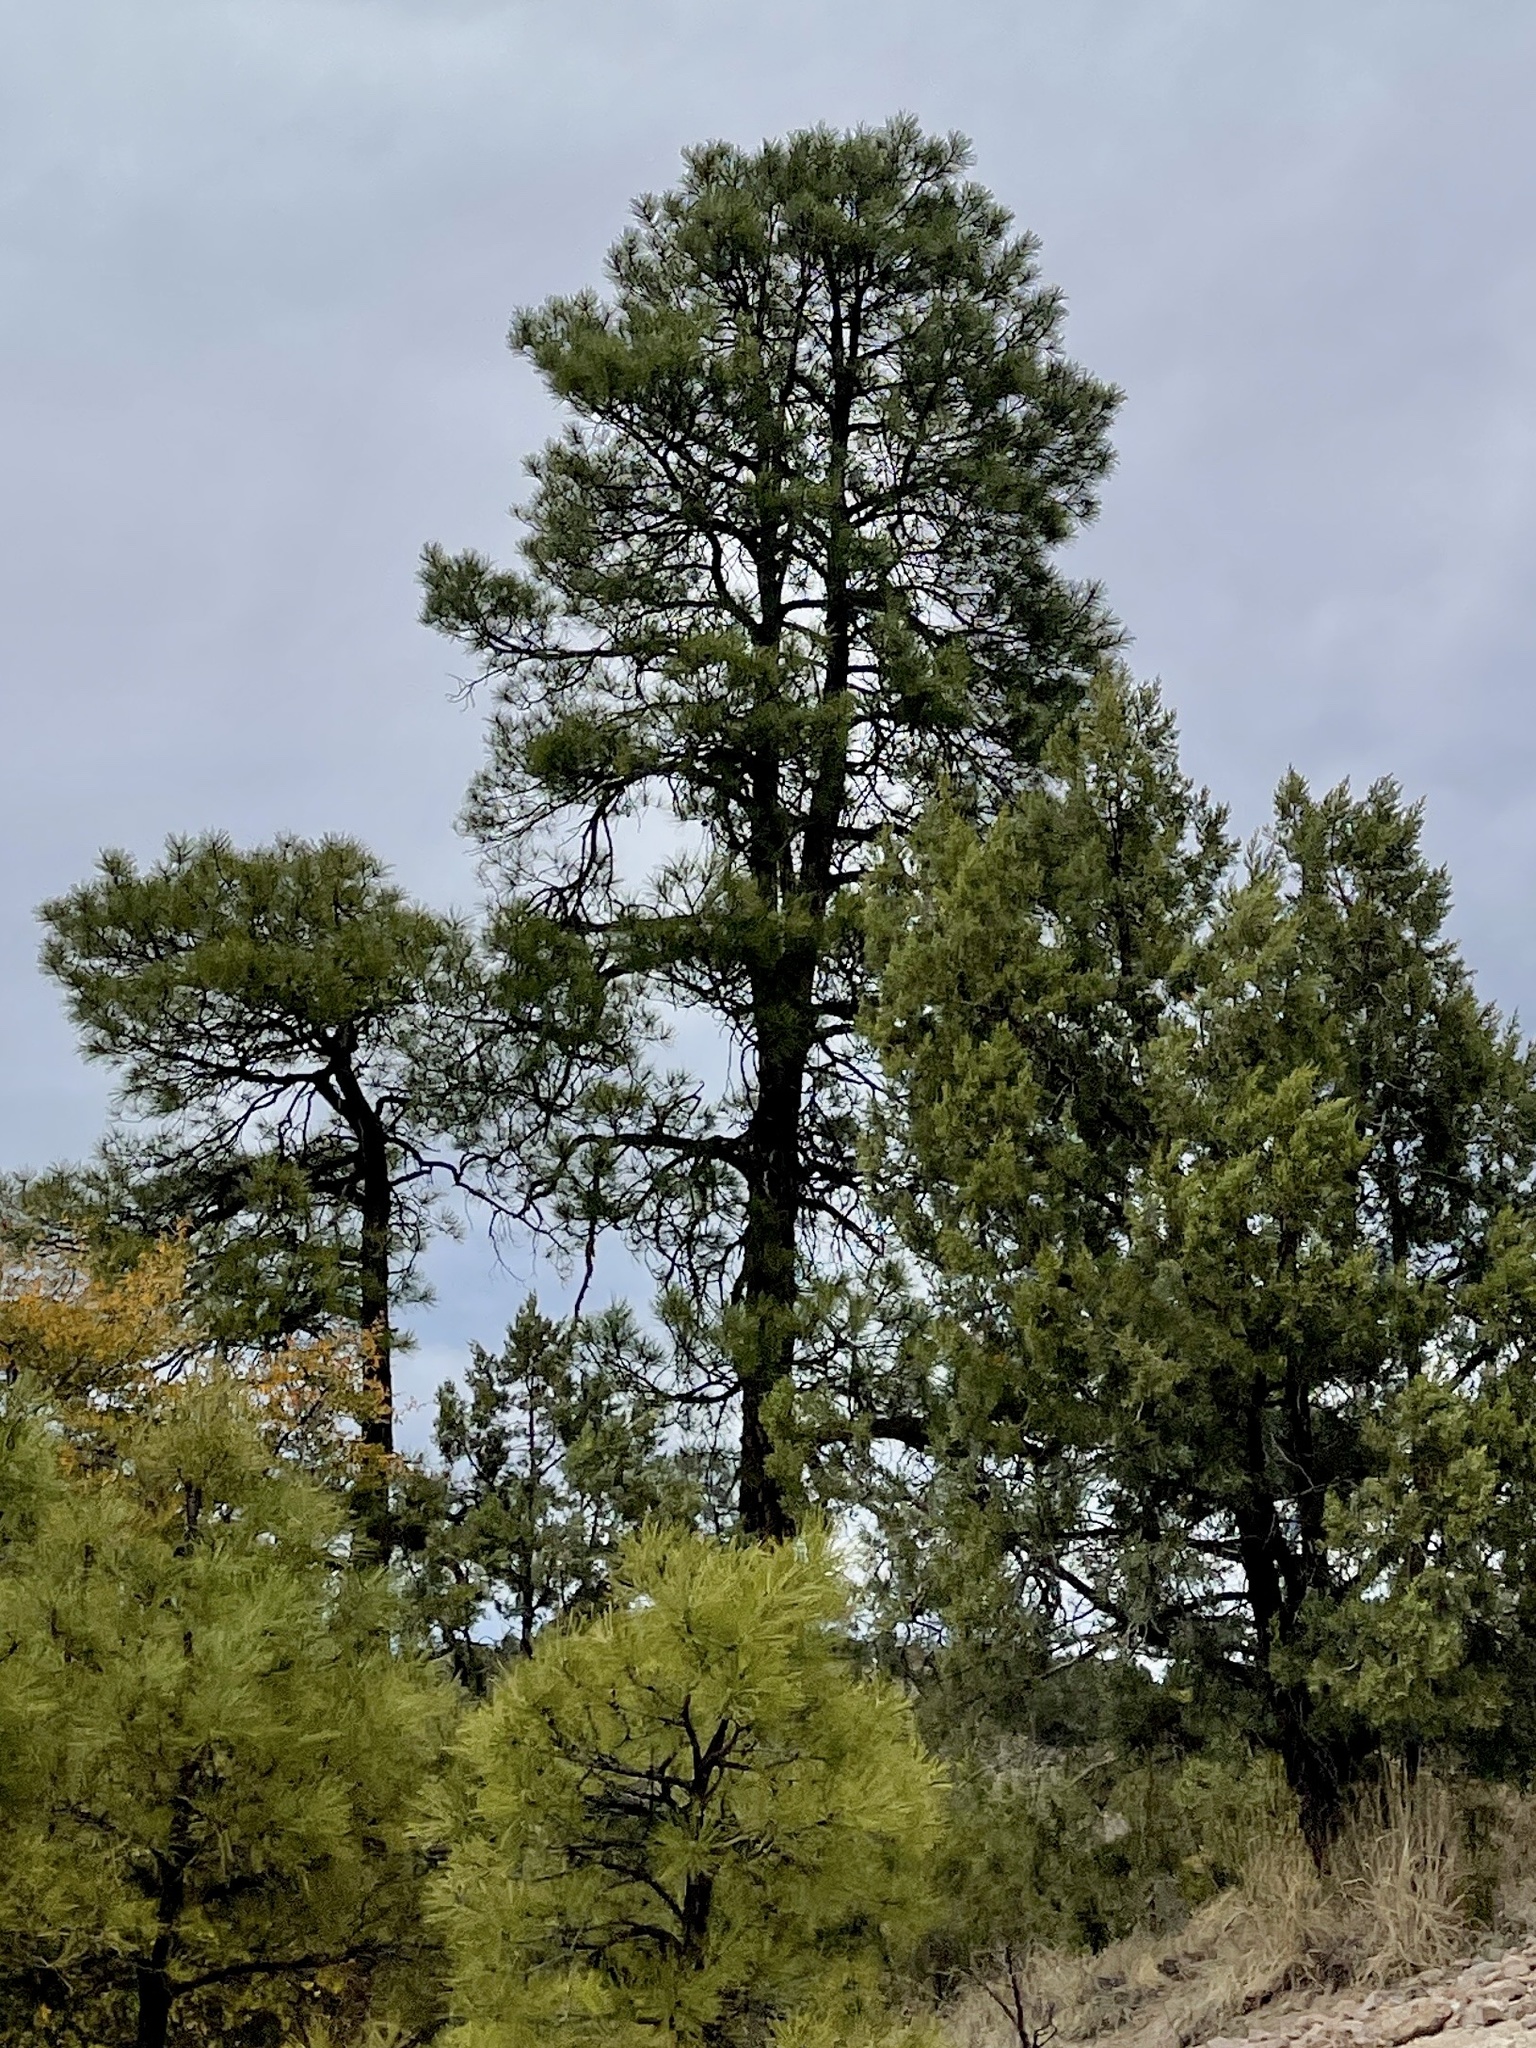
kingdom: Plantae
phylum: Tracheophyta
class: Pinopsida
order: Pinales
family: Pinaceae
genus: Pinus
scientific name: Pinus ponderosa
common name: Western yellow-pine
